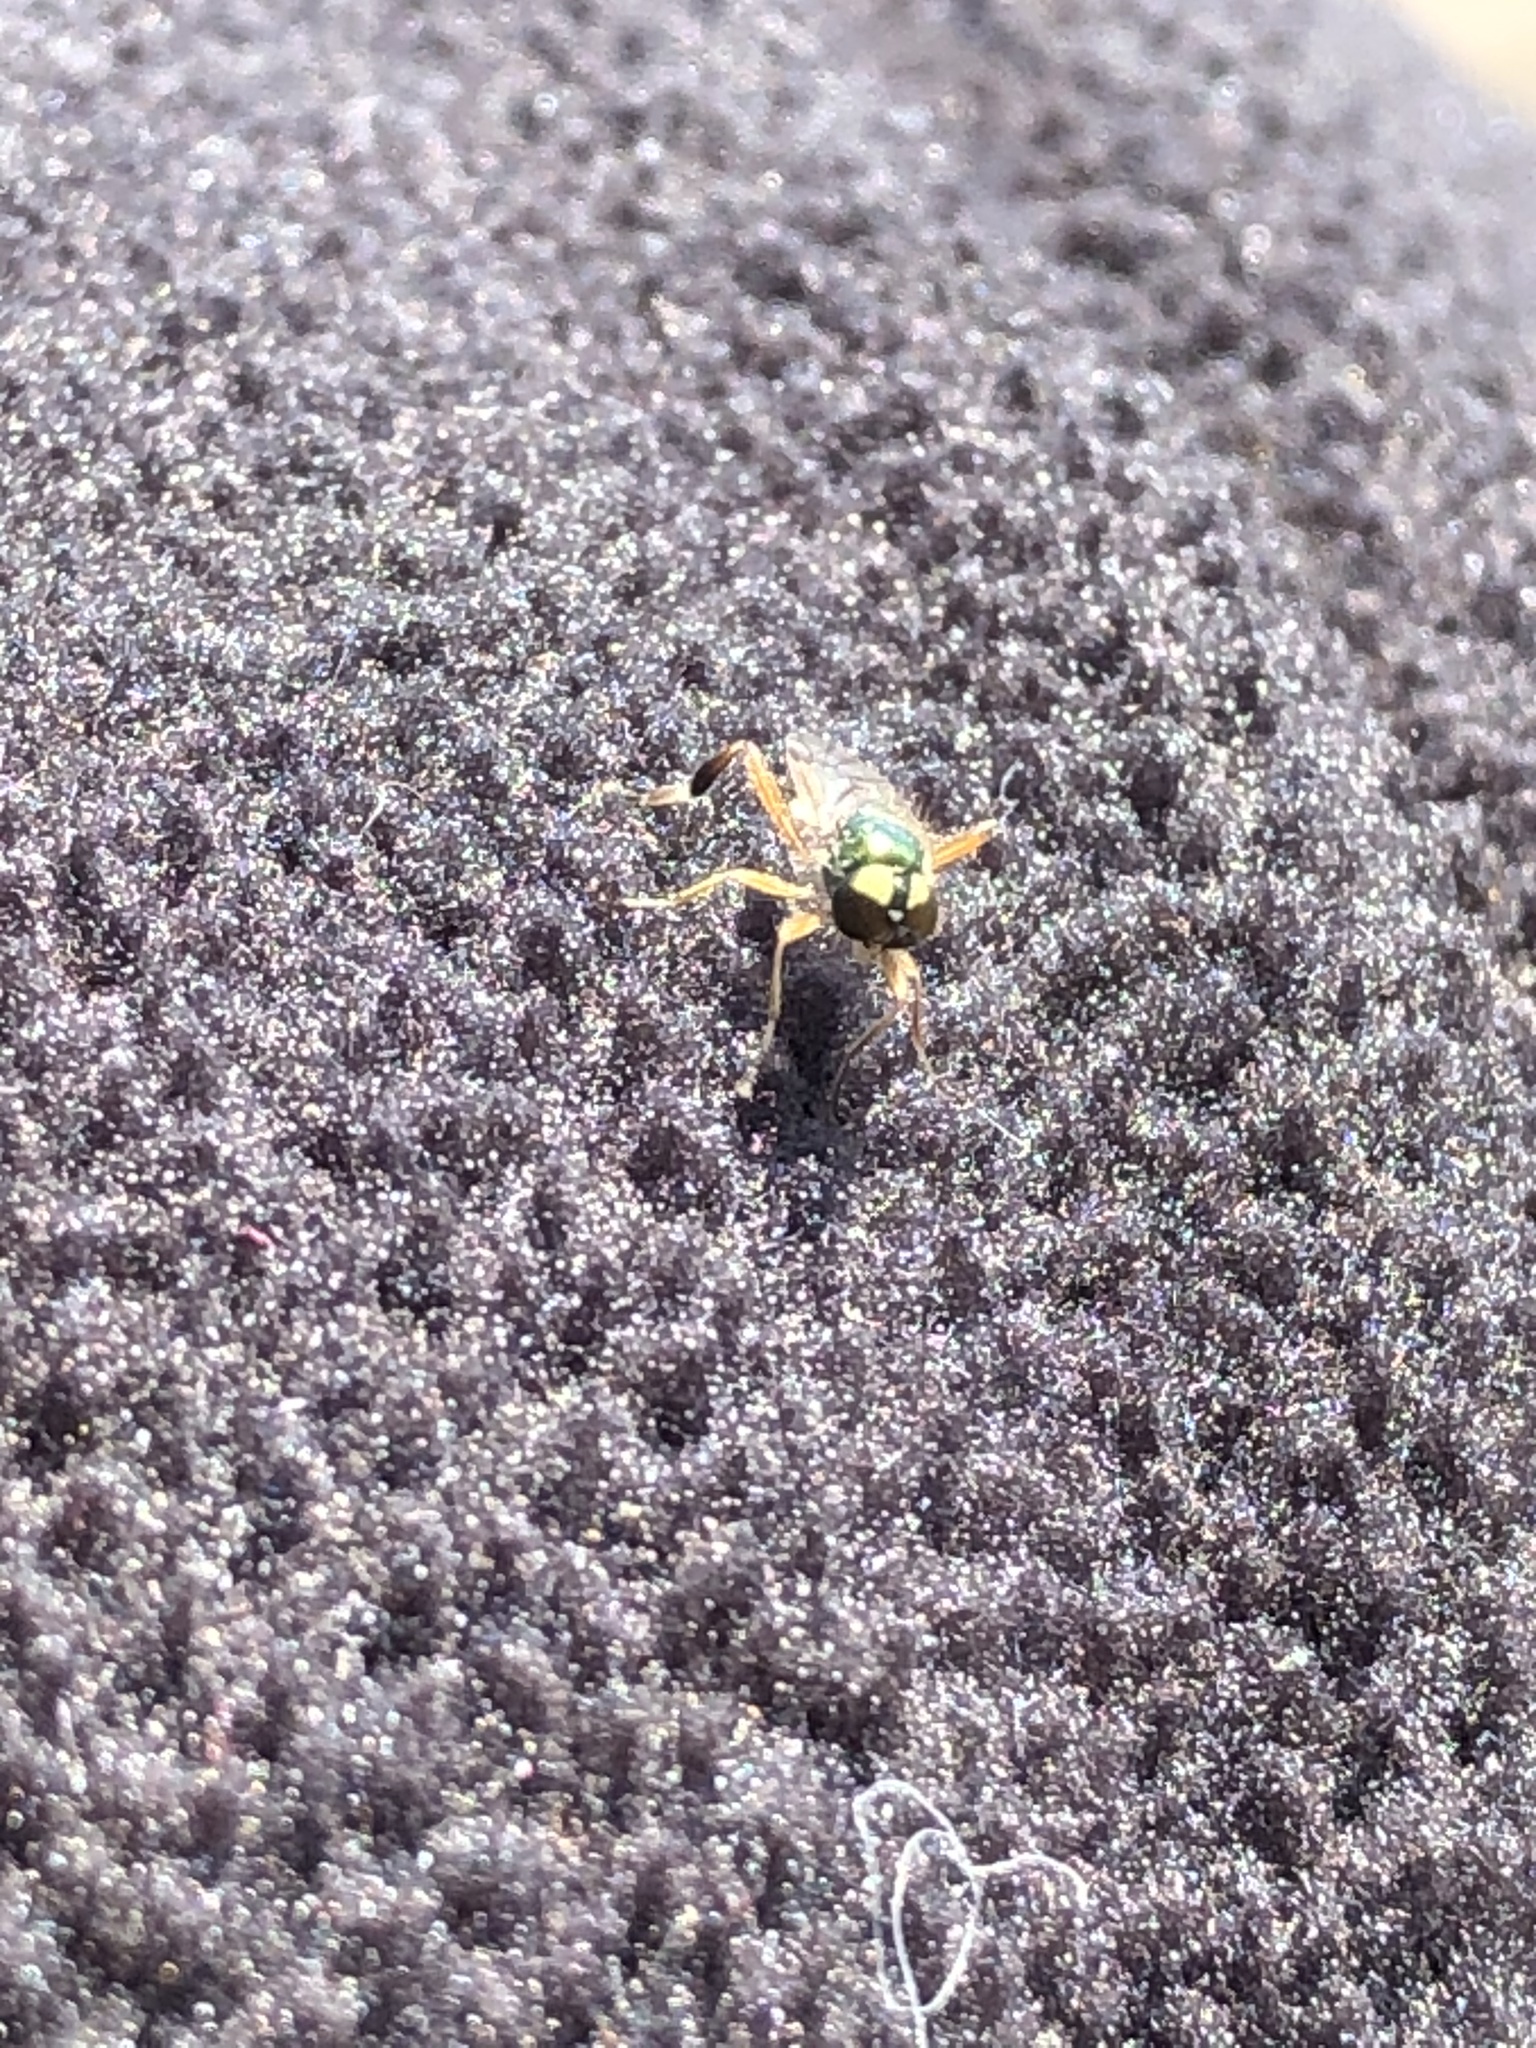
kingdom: Animalia
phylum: Arthropoda
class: Insecta
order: Diptera
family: Stratiomyidae
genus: Actina
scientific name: Actina viridis
